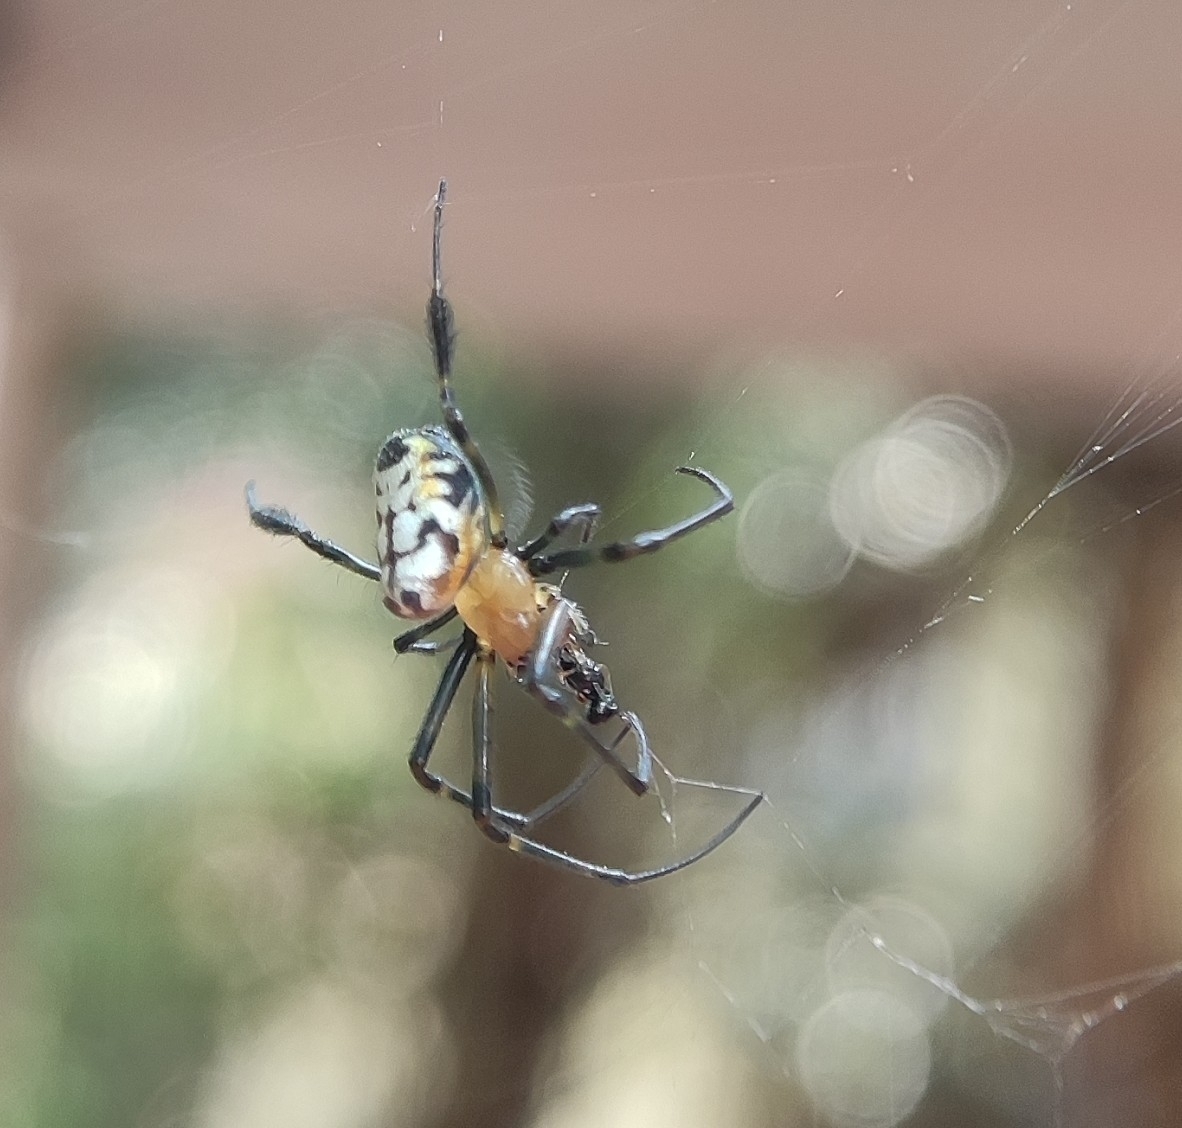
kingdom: Animalia
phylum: Arthropoda
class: Arachnida
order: Araneae
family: Tetragnathidae
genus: Leucauge
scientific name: Leucauge fastigata
